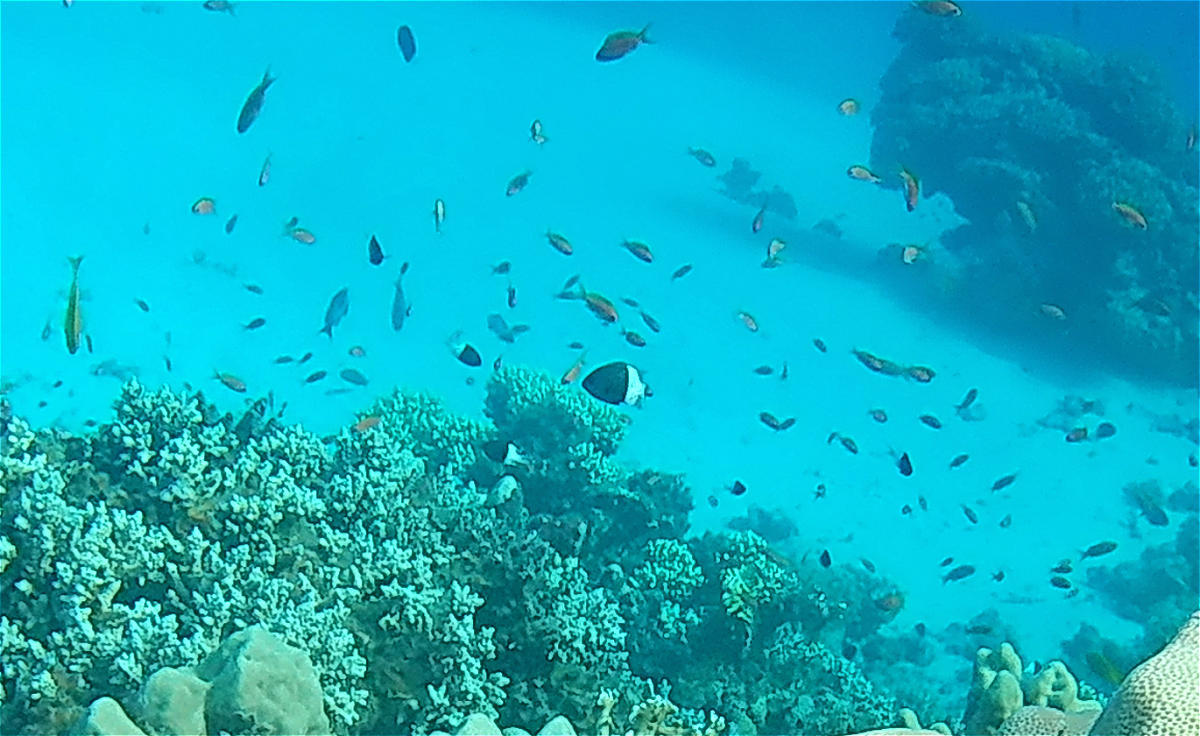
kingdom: Animalia
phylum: Chordata
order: Perciformes
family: Pomacentridae
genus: Chromis
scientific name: Chromis dimidiata
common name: Half-and-half chromis
